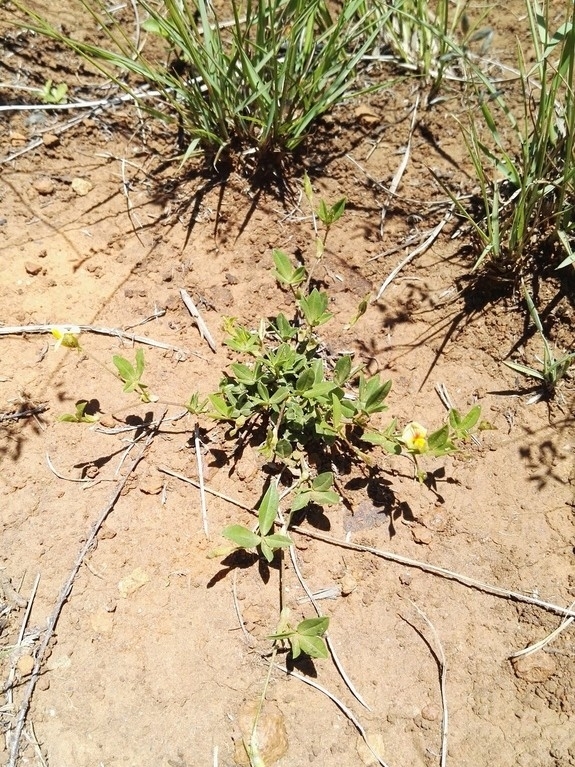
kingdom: Plantae
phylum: Tracheophyta
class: Magnoliopsida
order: Fabales
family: Fabaceae
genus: Zornia
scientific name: Zornia capensis
